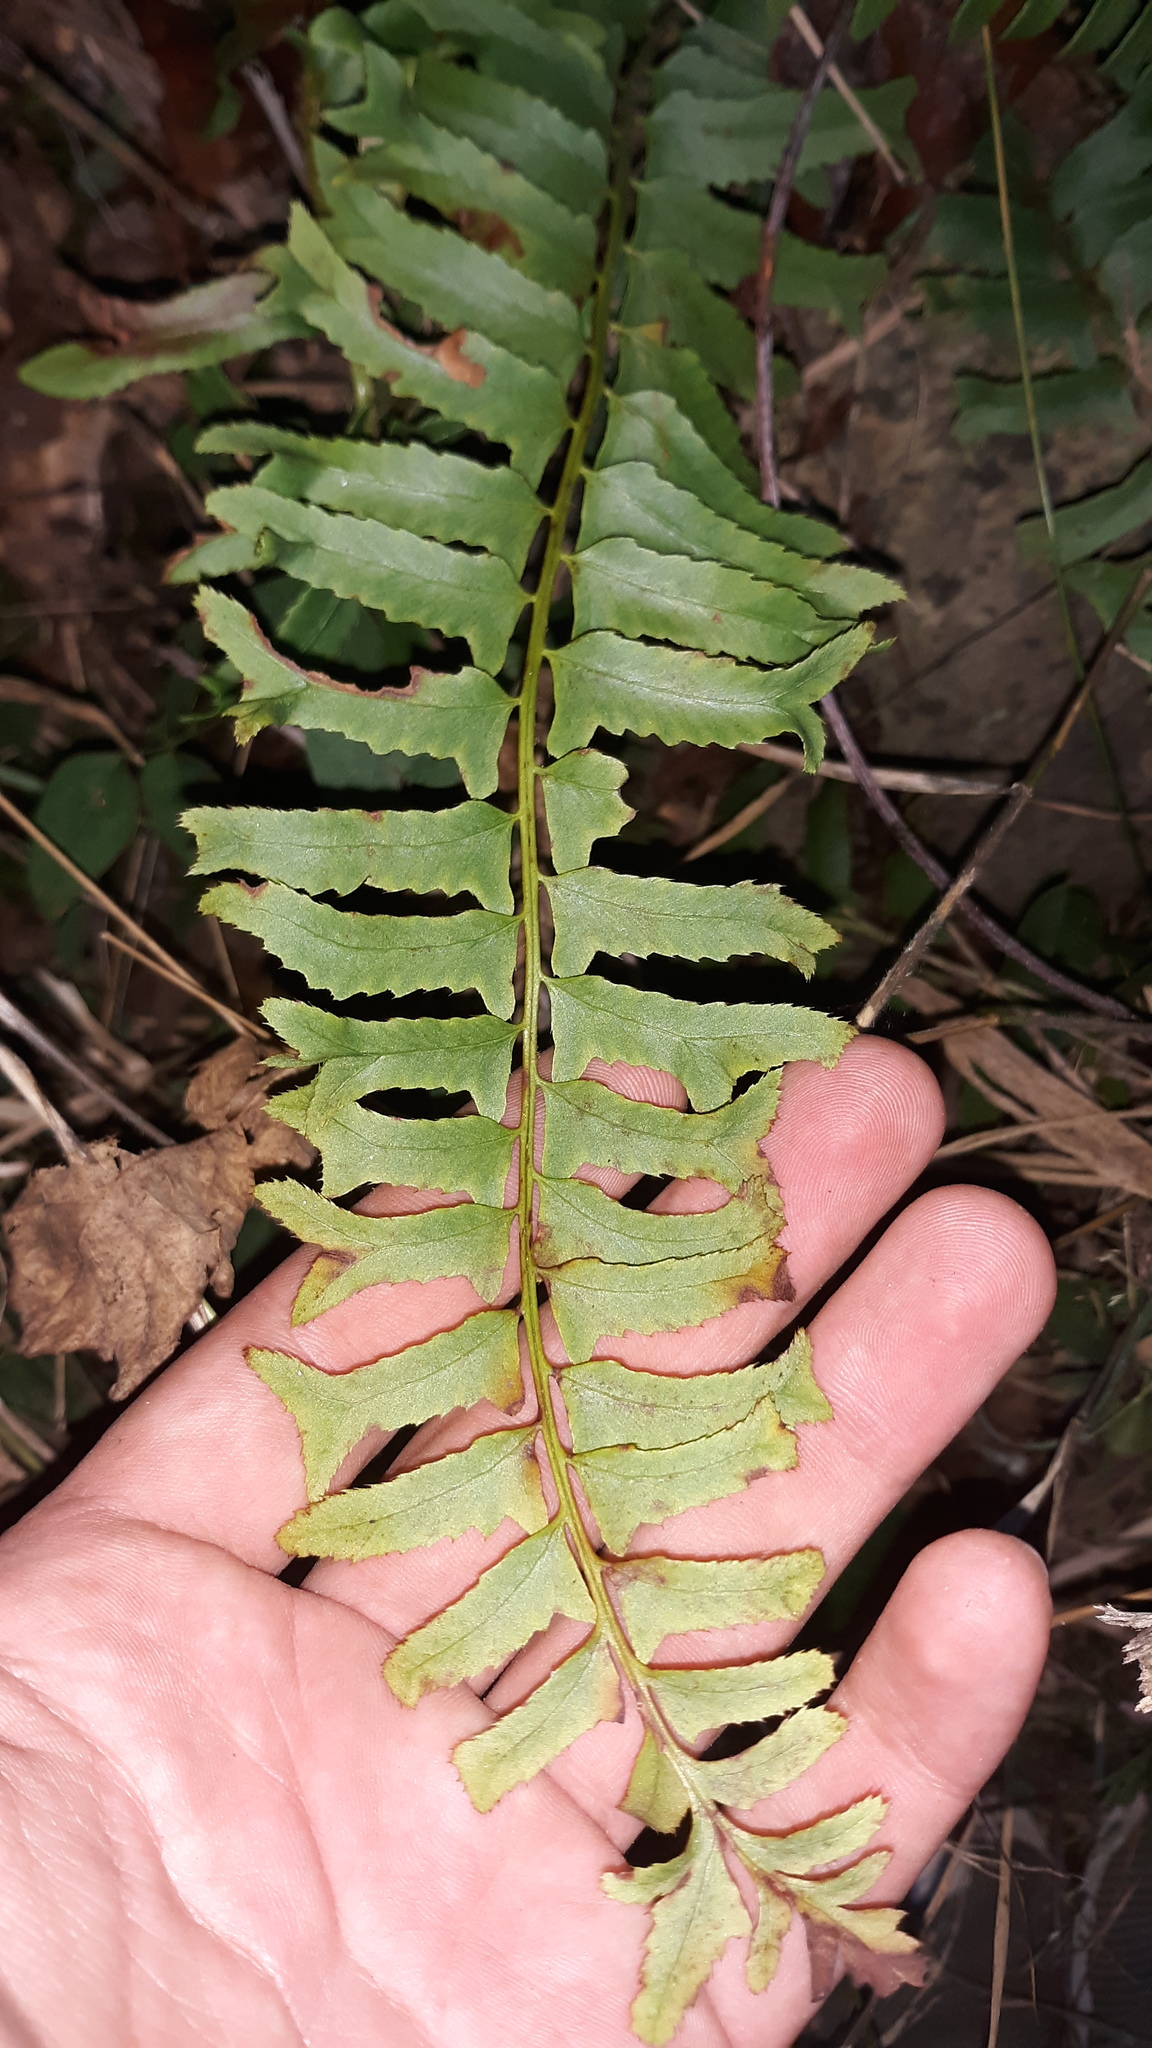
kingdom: Plantae
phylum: Tracheophyta
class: Polypodiopsida
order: Polypodiales
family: Dryopteridaceae
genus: Polystichum
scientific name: Polystichum acrostichoides
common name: Christmas fern
